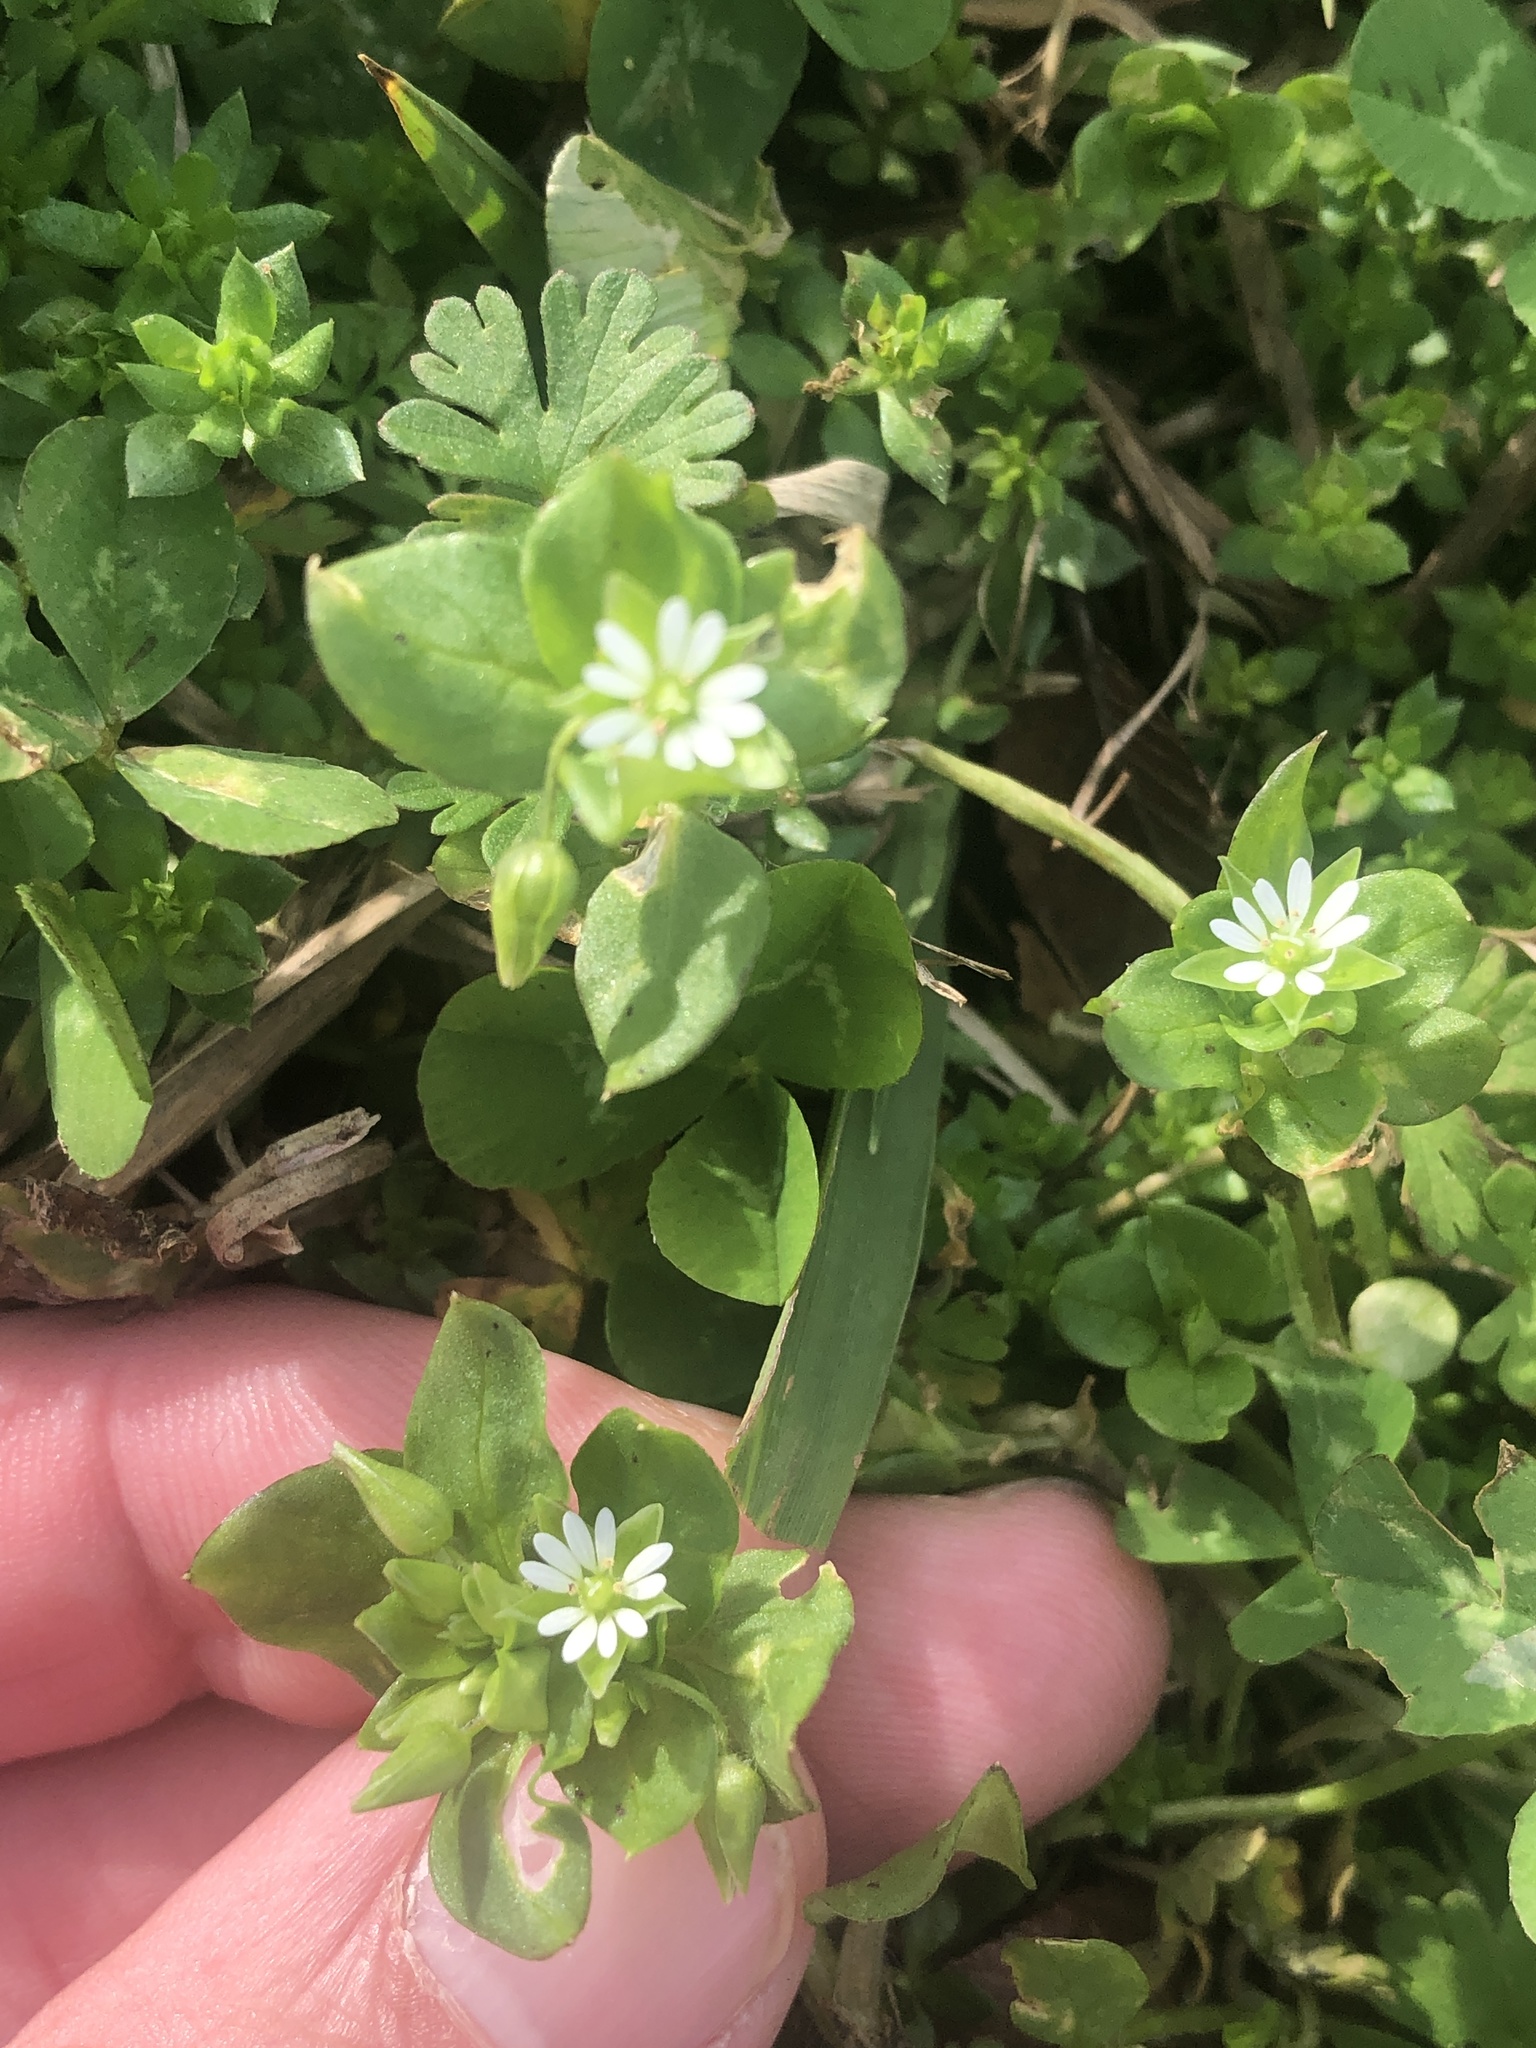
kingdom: Plantae
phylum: Tracheophyta
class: Magnoliopsida
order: Caryophyllales
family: Caryophyllaceae
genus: Stellaria
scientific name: Stellaria media
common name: Common chickweed
